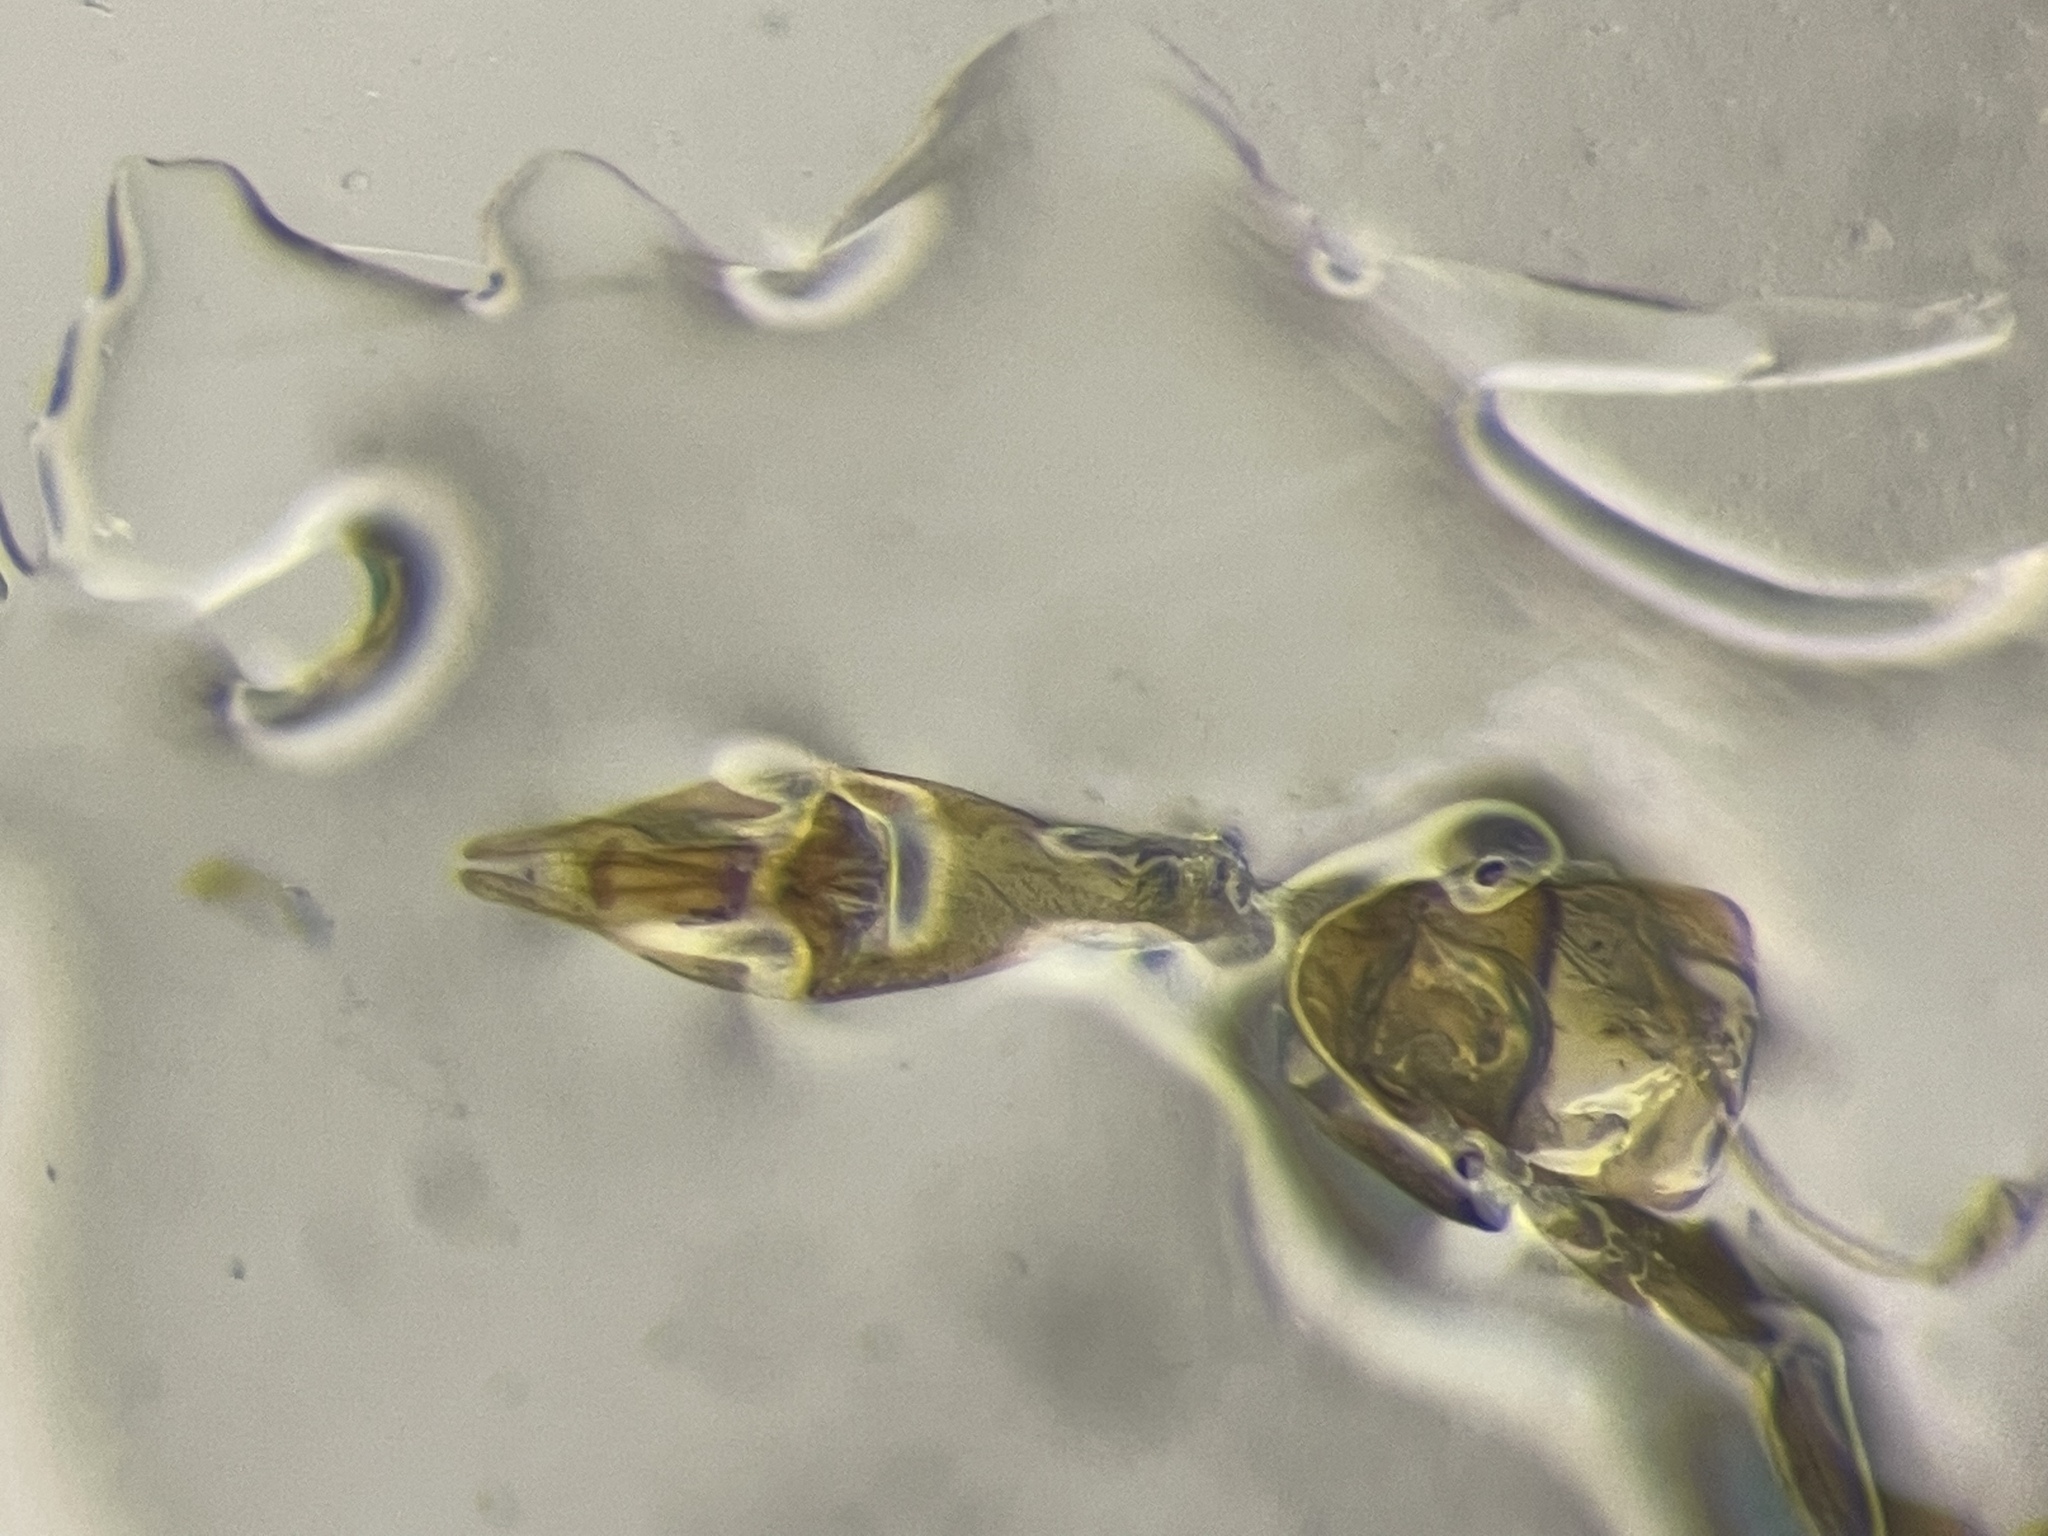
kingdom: Animalia
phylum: Arthropoda
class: Insecta
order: Coleoptera
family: Hydrophilidae
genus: Enochrus
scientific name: Enochrus ochraceus
